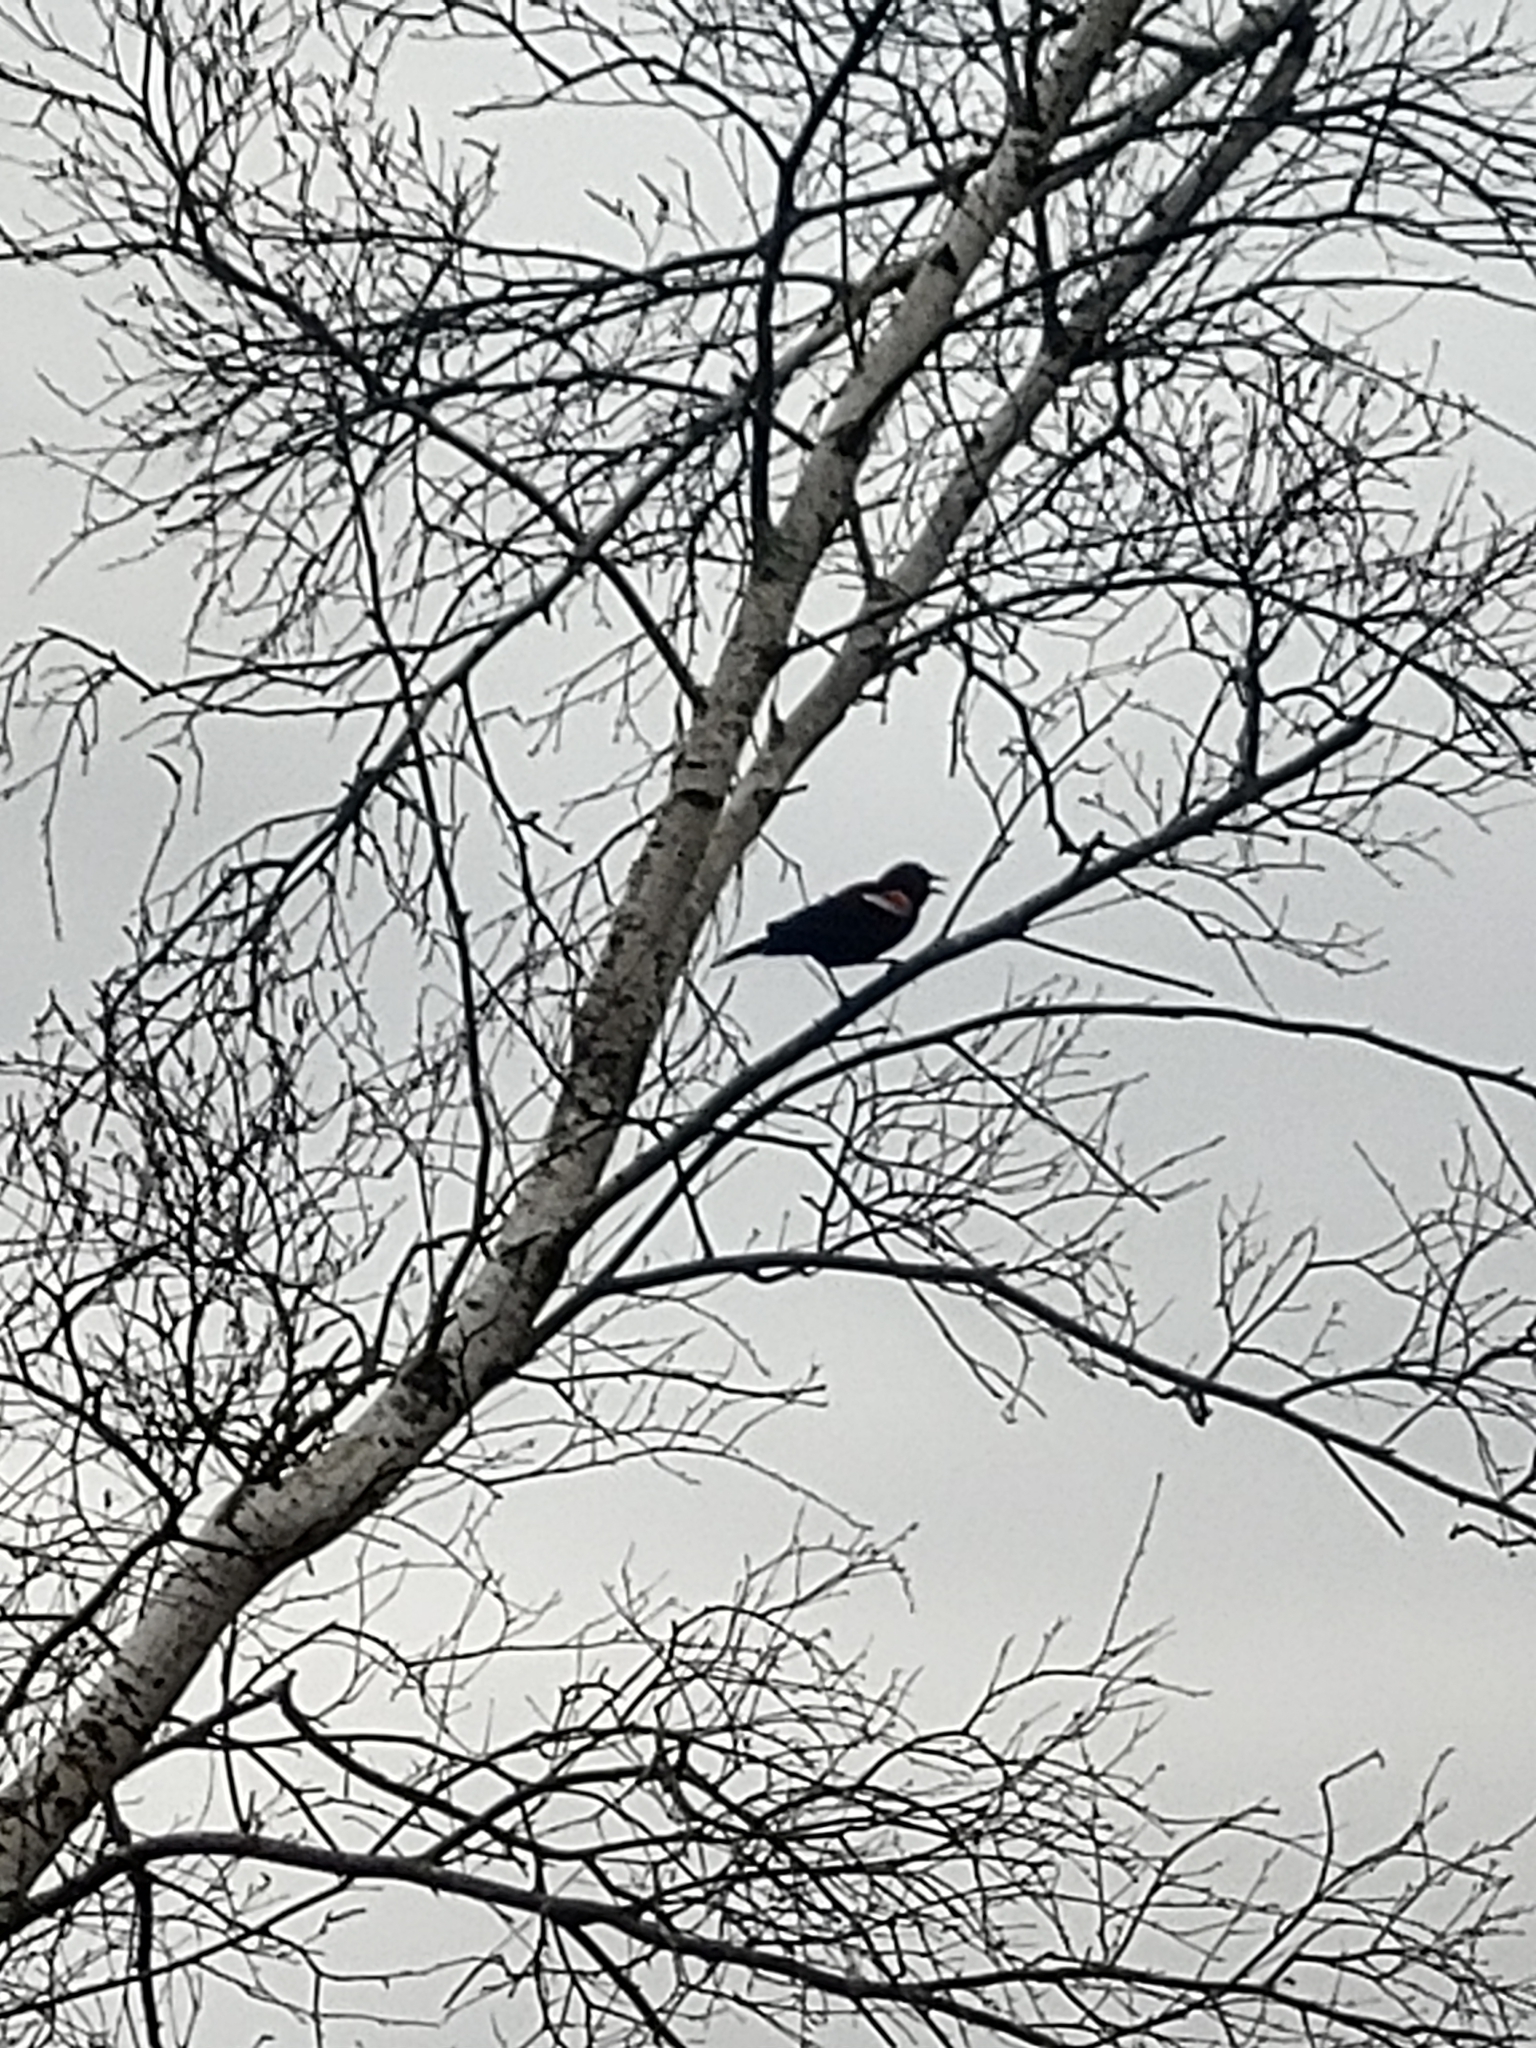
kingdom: Animalia
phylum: Chordata
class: Aves
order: Passeriformes
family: Icteridae
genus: Agelaius
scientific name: Agelaius phoeniceus
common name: Red-winged blackbird
